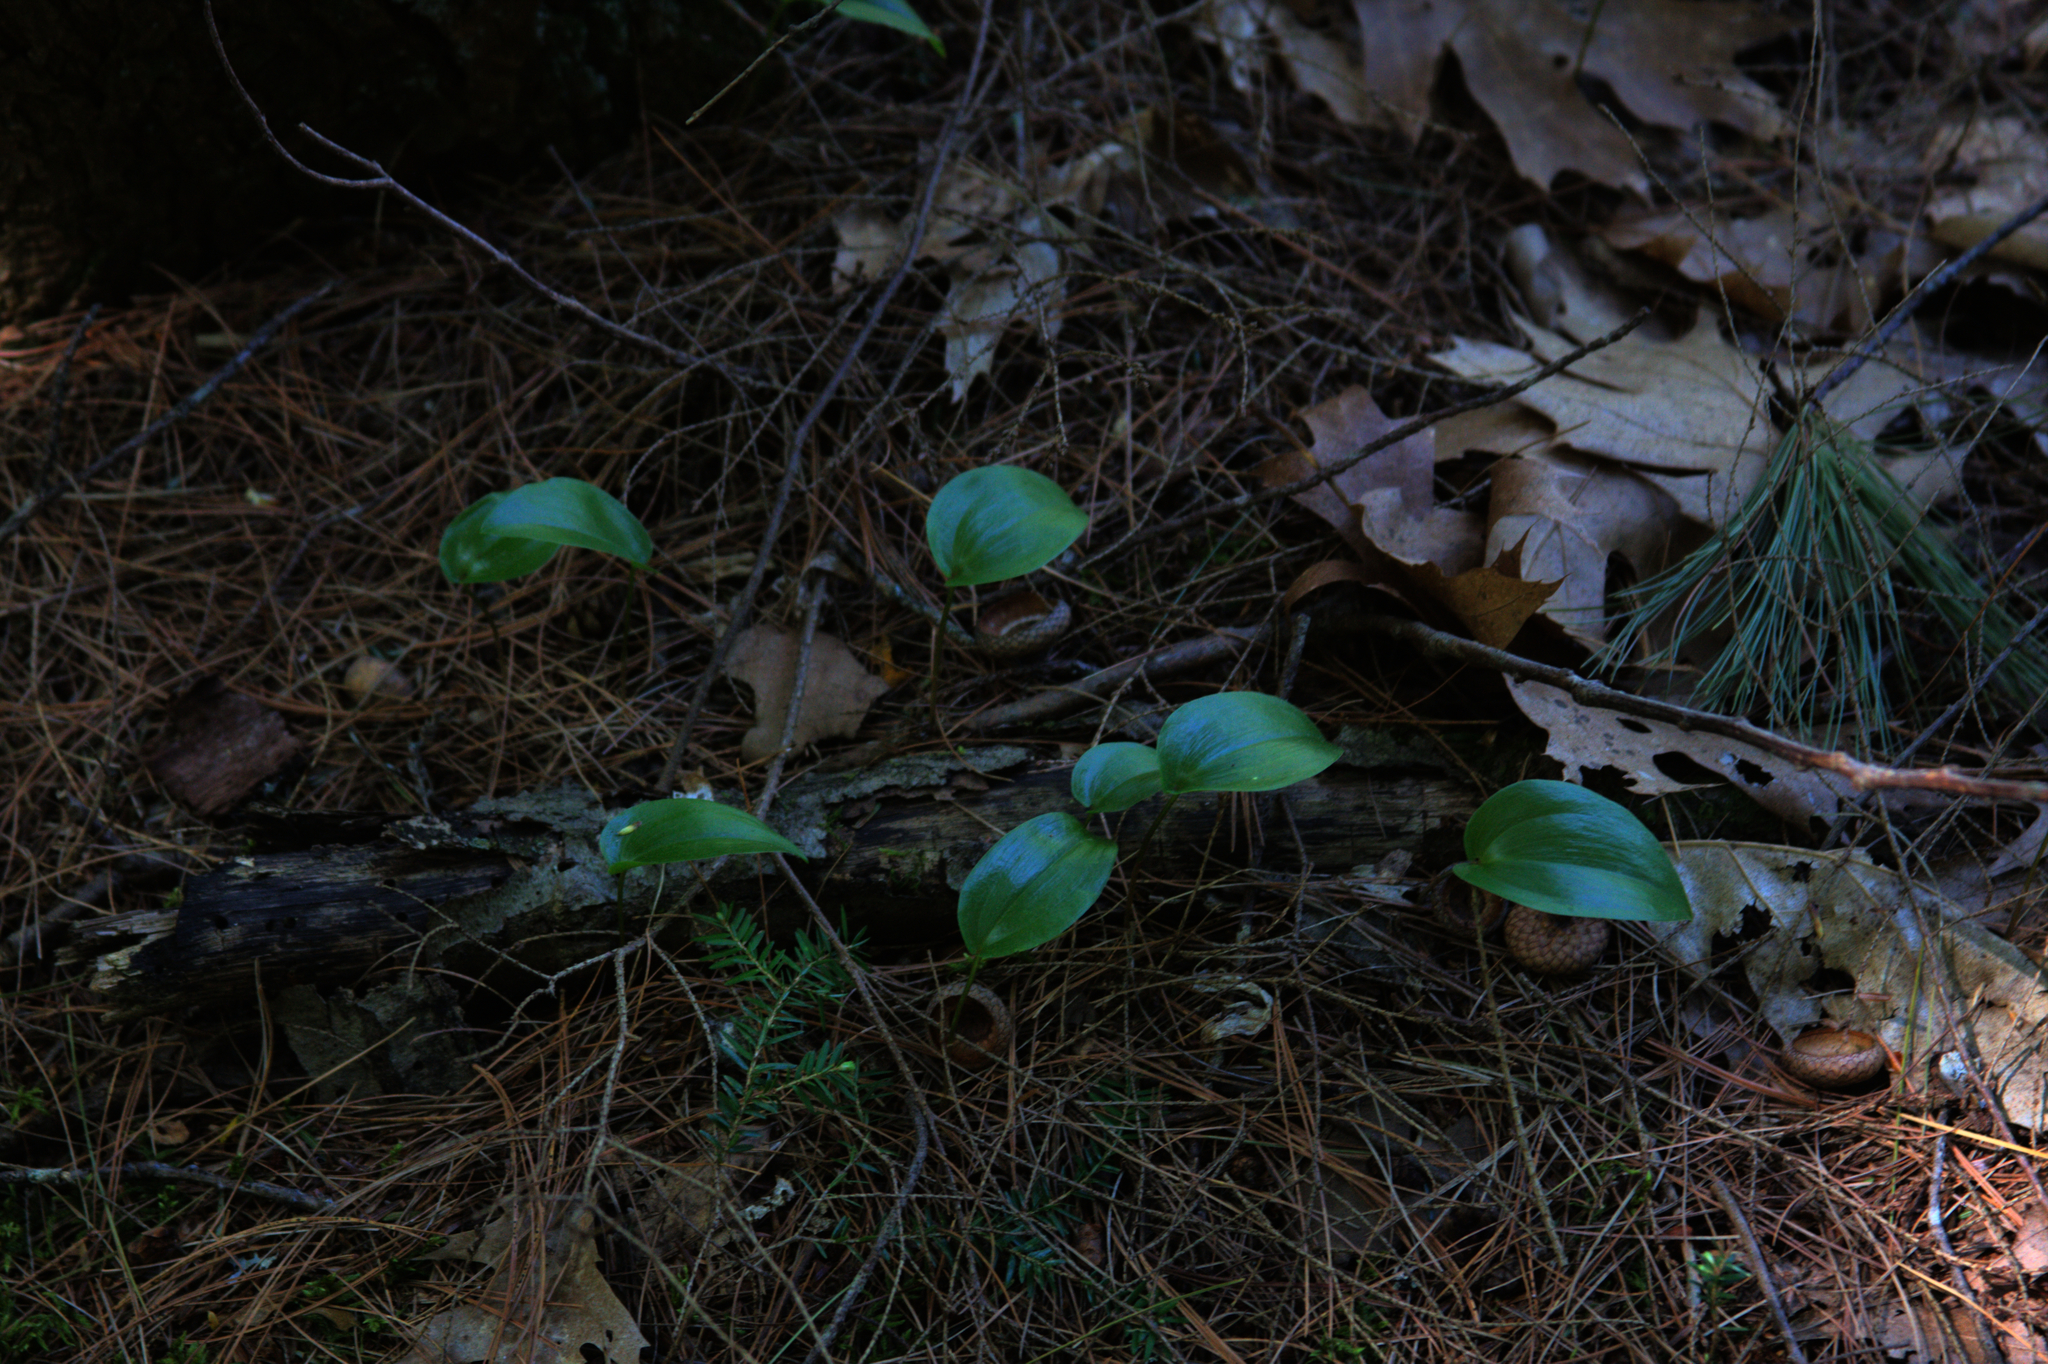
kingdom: Plantae
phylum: Tracheophyta
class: Liliopsida
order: Asparagales
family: Asparagaceae
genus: Maianthemum
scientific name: Maianthemum canadense
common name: False lily-of-the-valley
